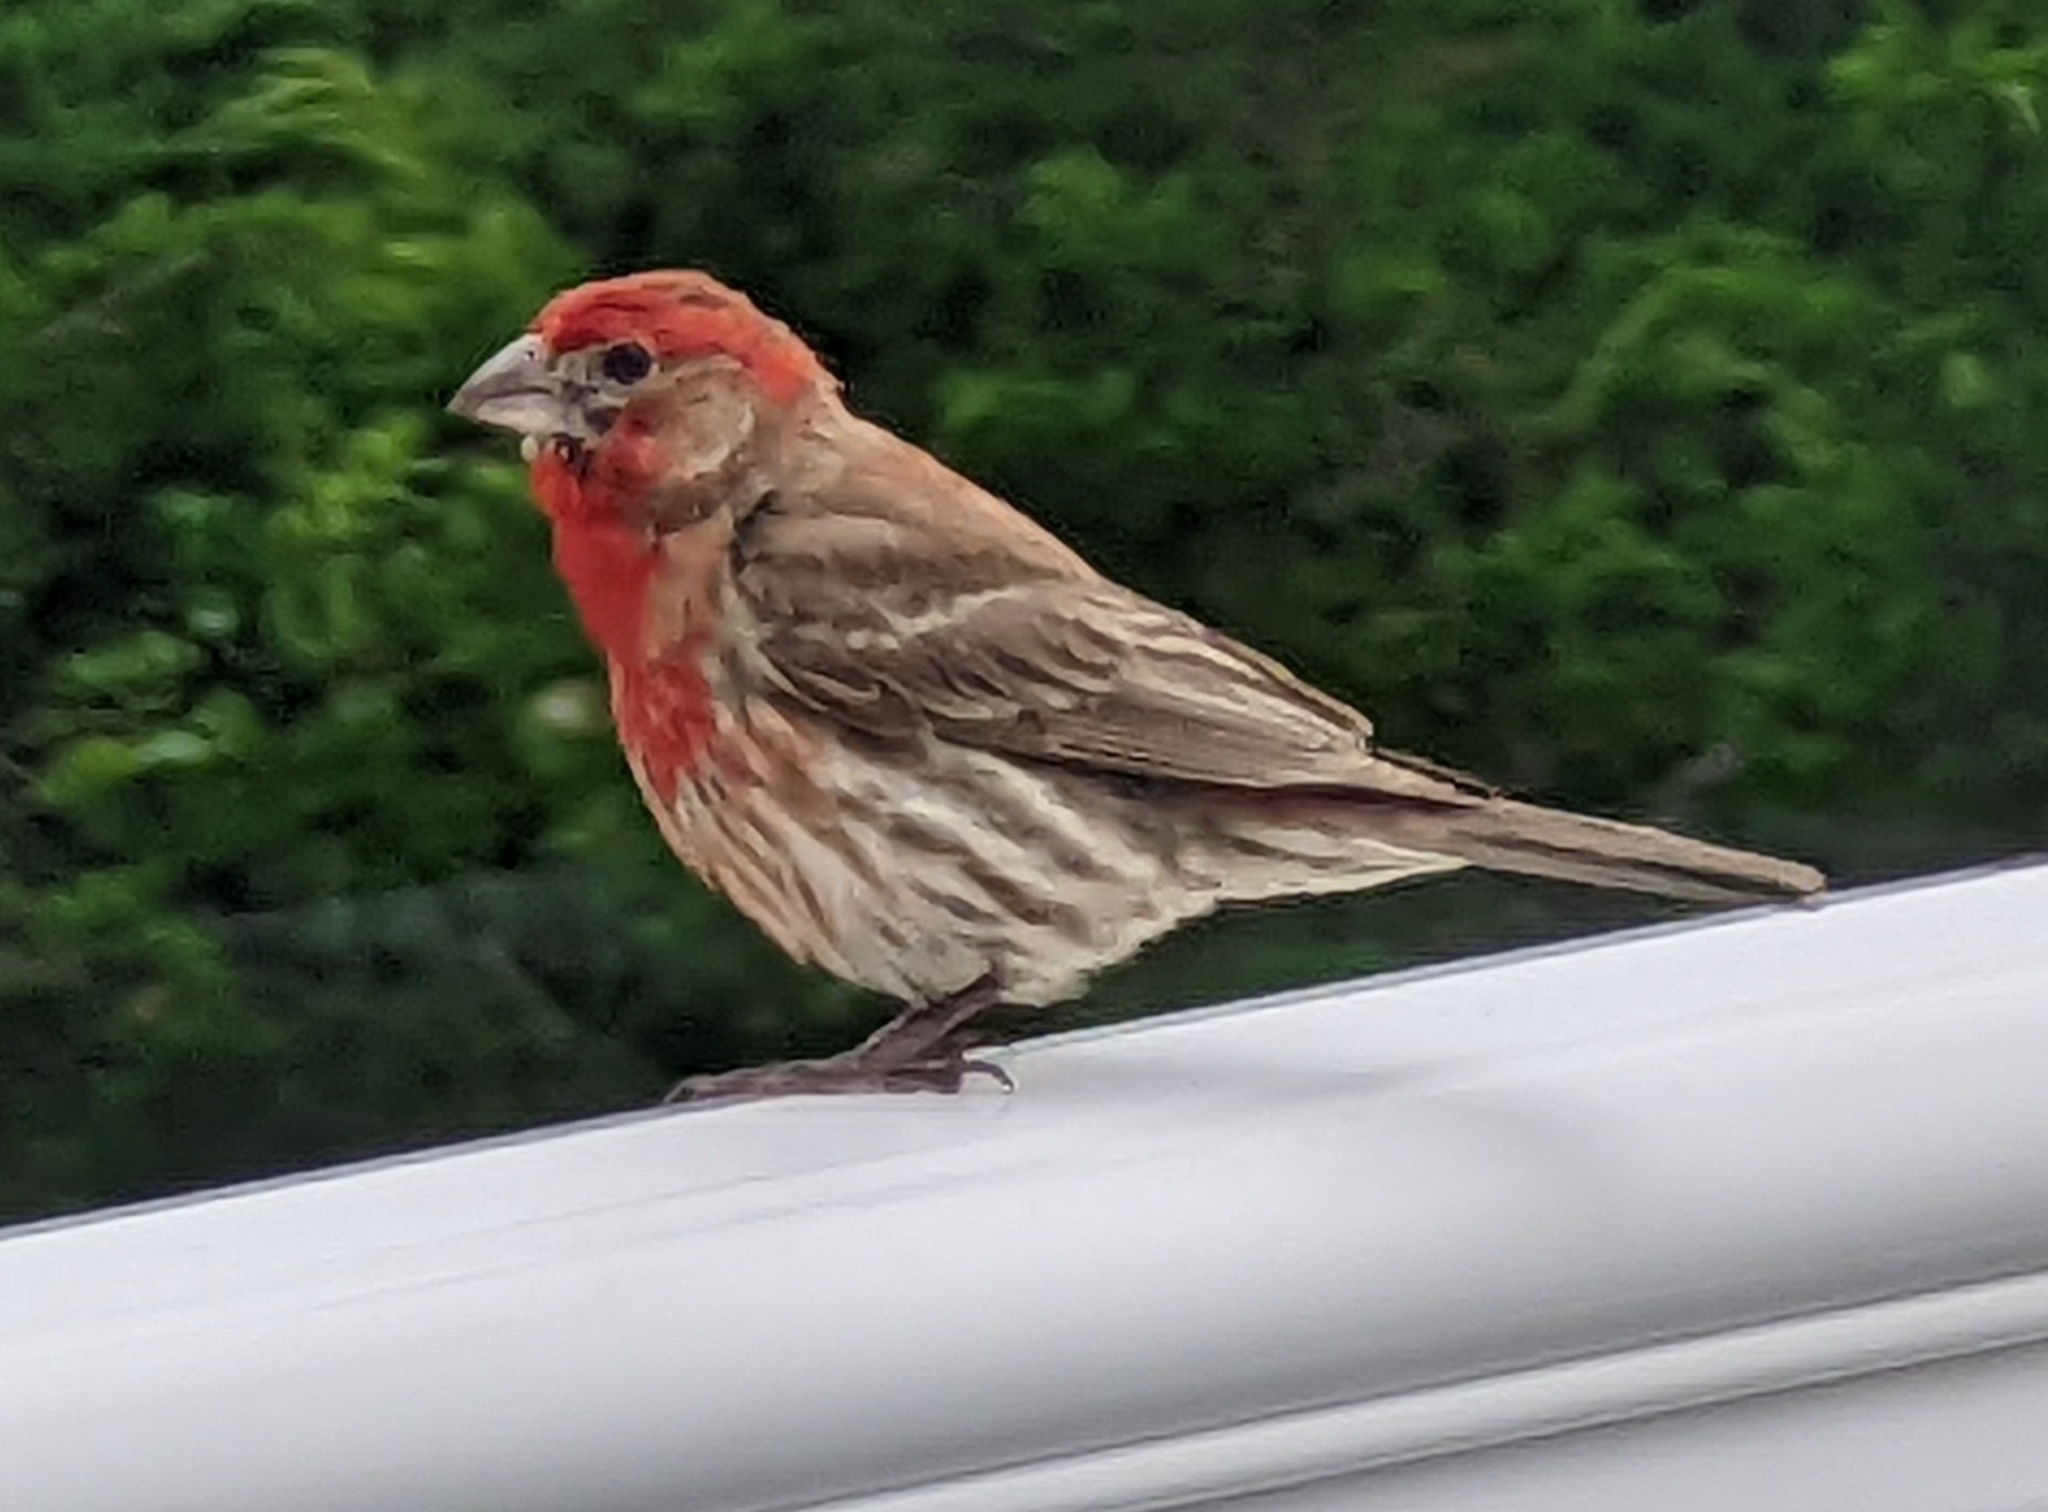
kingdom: Animalia
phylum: Chordata
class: Aves
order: Passeriformes
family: Fringillidae
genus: Haemorhous
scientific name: Haemorhous mexicanus
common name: House finch
